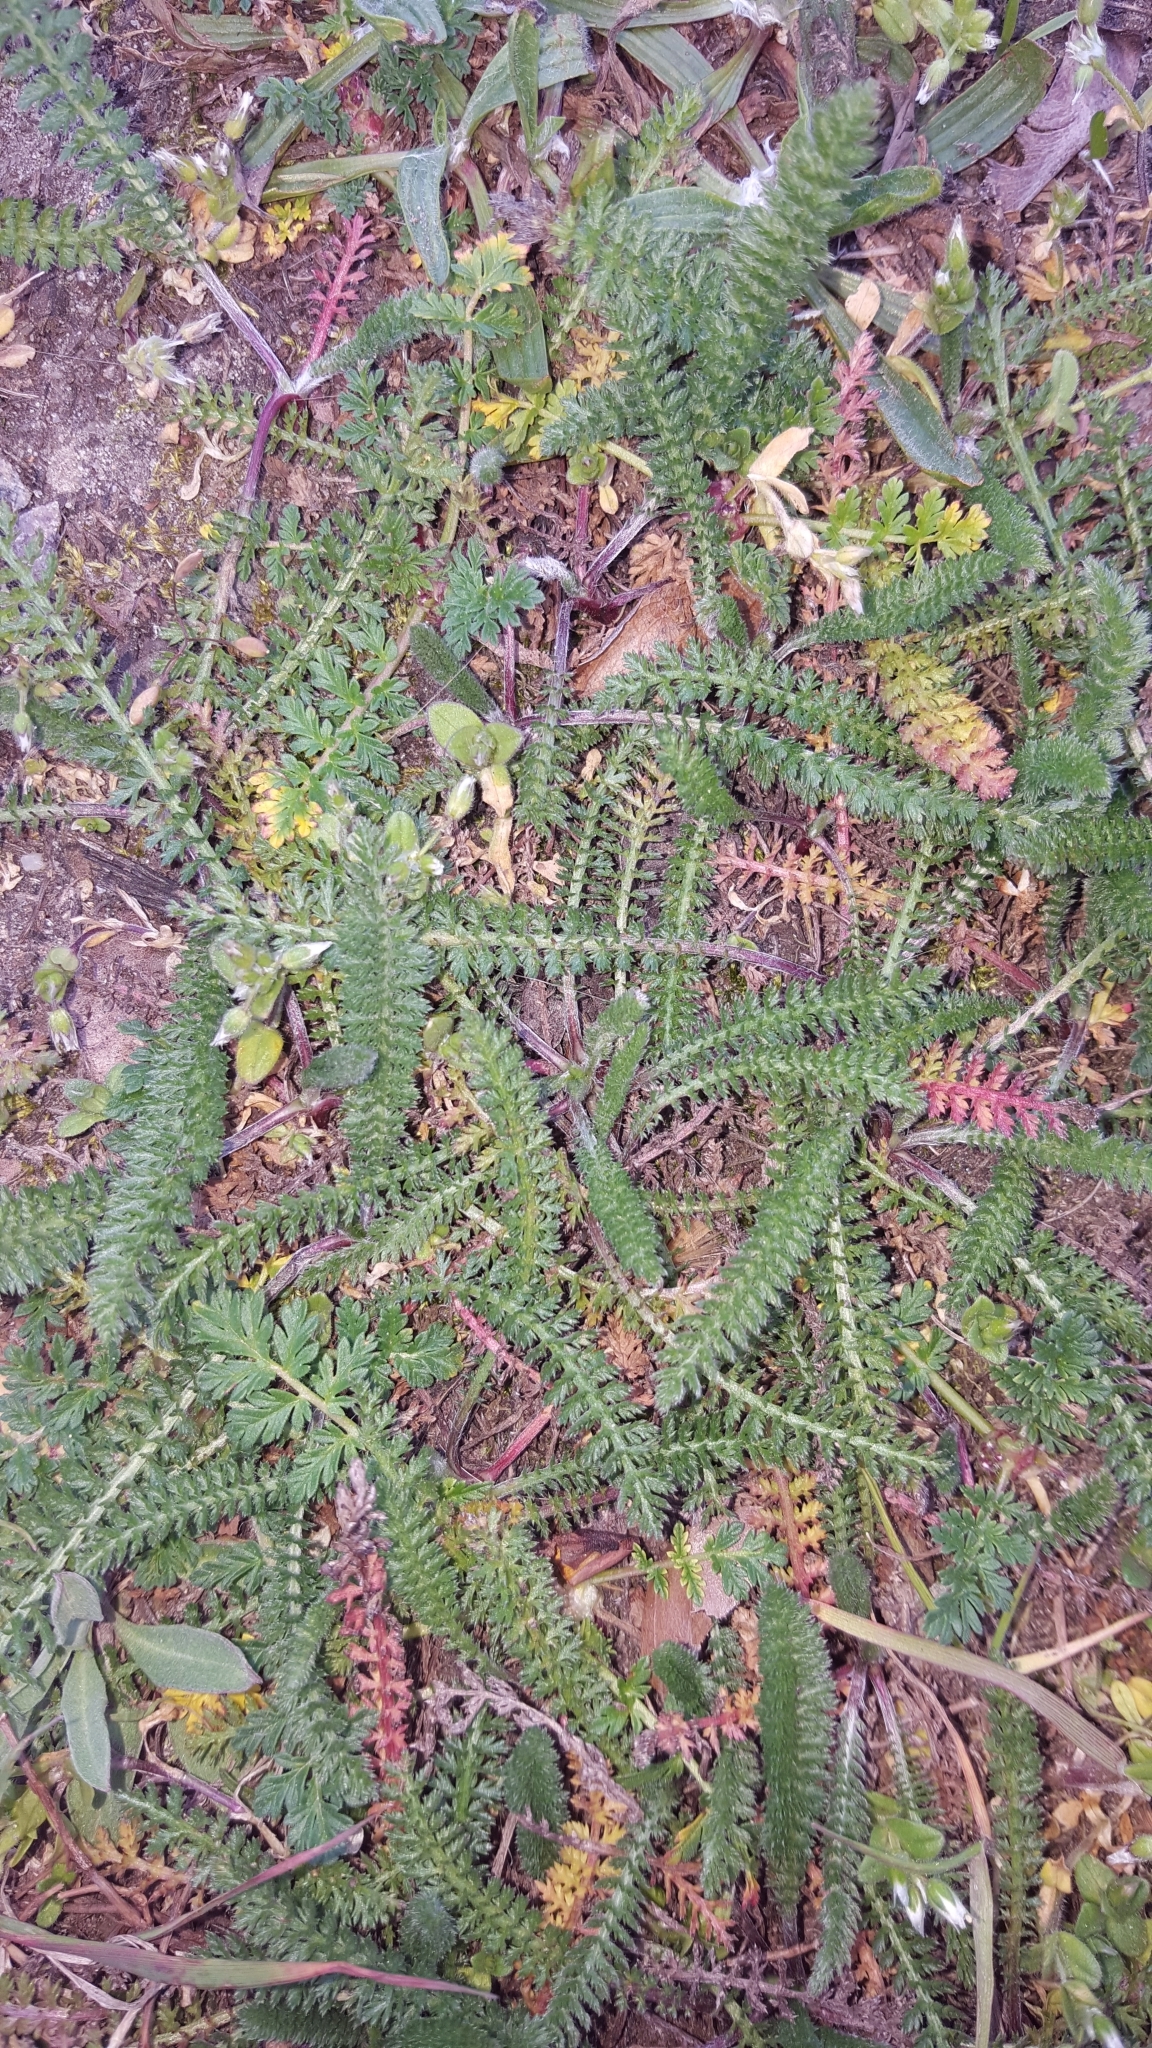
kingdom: Plantae
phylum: Tracheophyta
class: Magnoliopsida
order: Asterales
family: Asteraceae
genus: Achillea
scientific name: Achillea millefolium
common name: Yarrow
